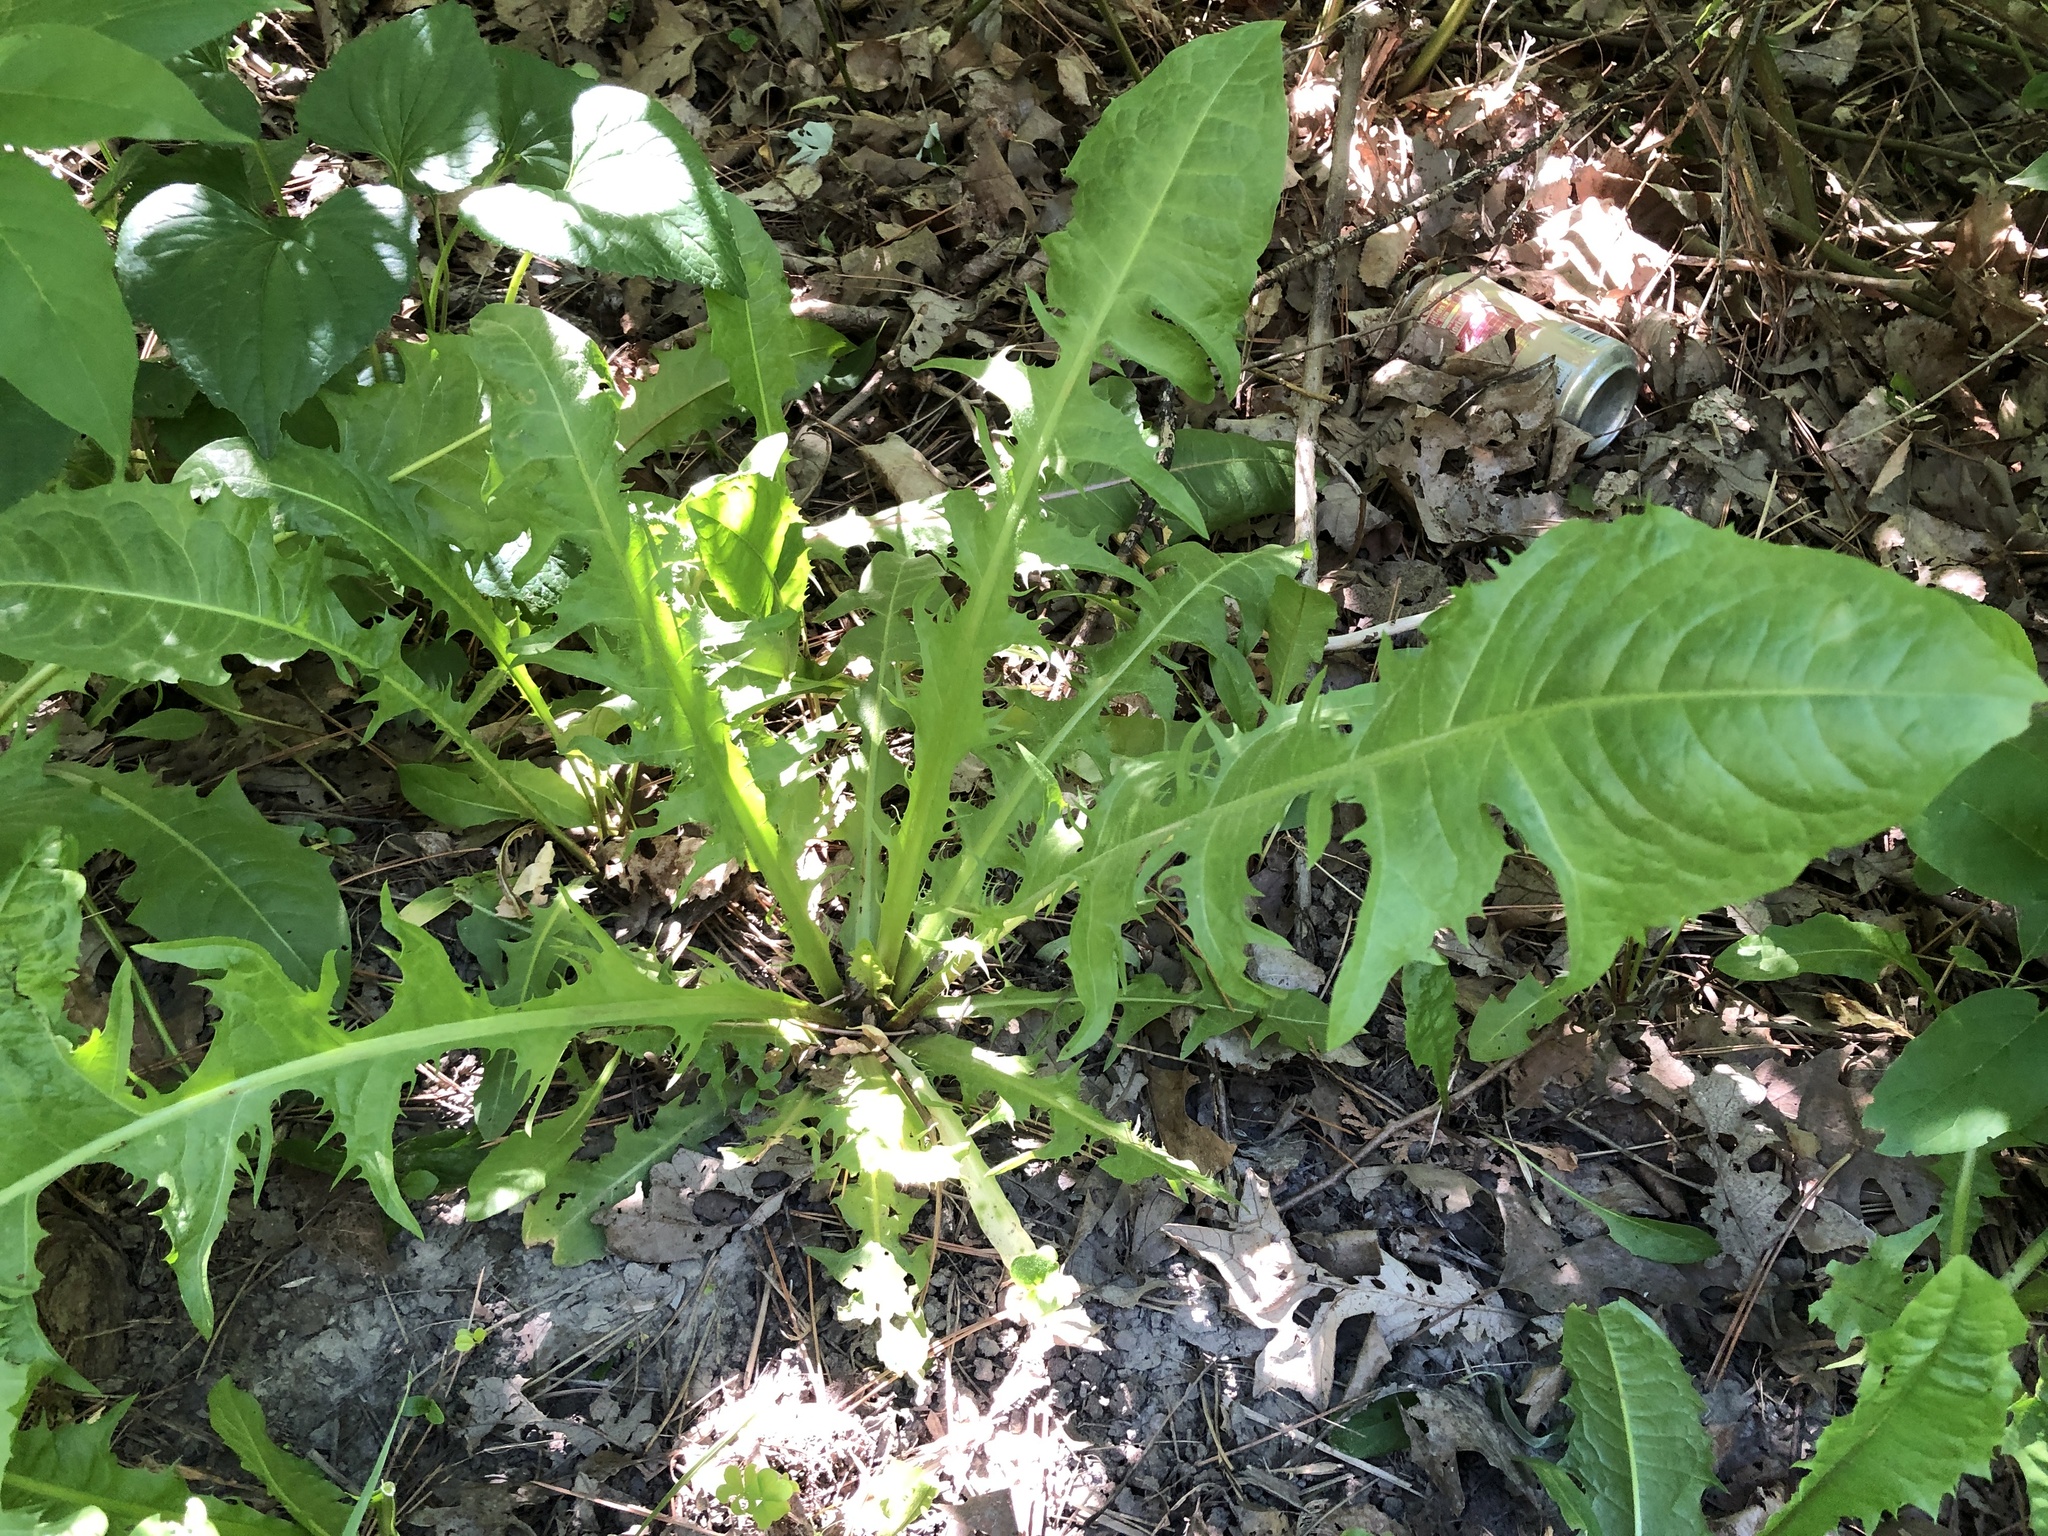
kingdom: Plantae
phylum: Tracheophyta
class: Magnoliopsida
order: Asterales
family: Asteraceae
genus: Taraxacum
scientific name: Taraxacum officinale
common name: Common dandelion
